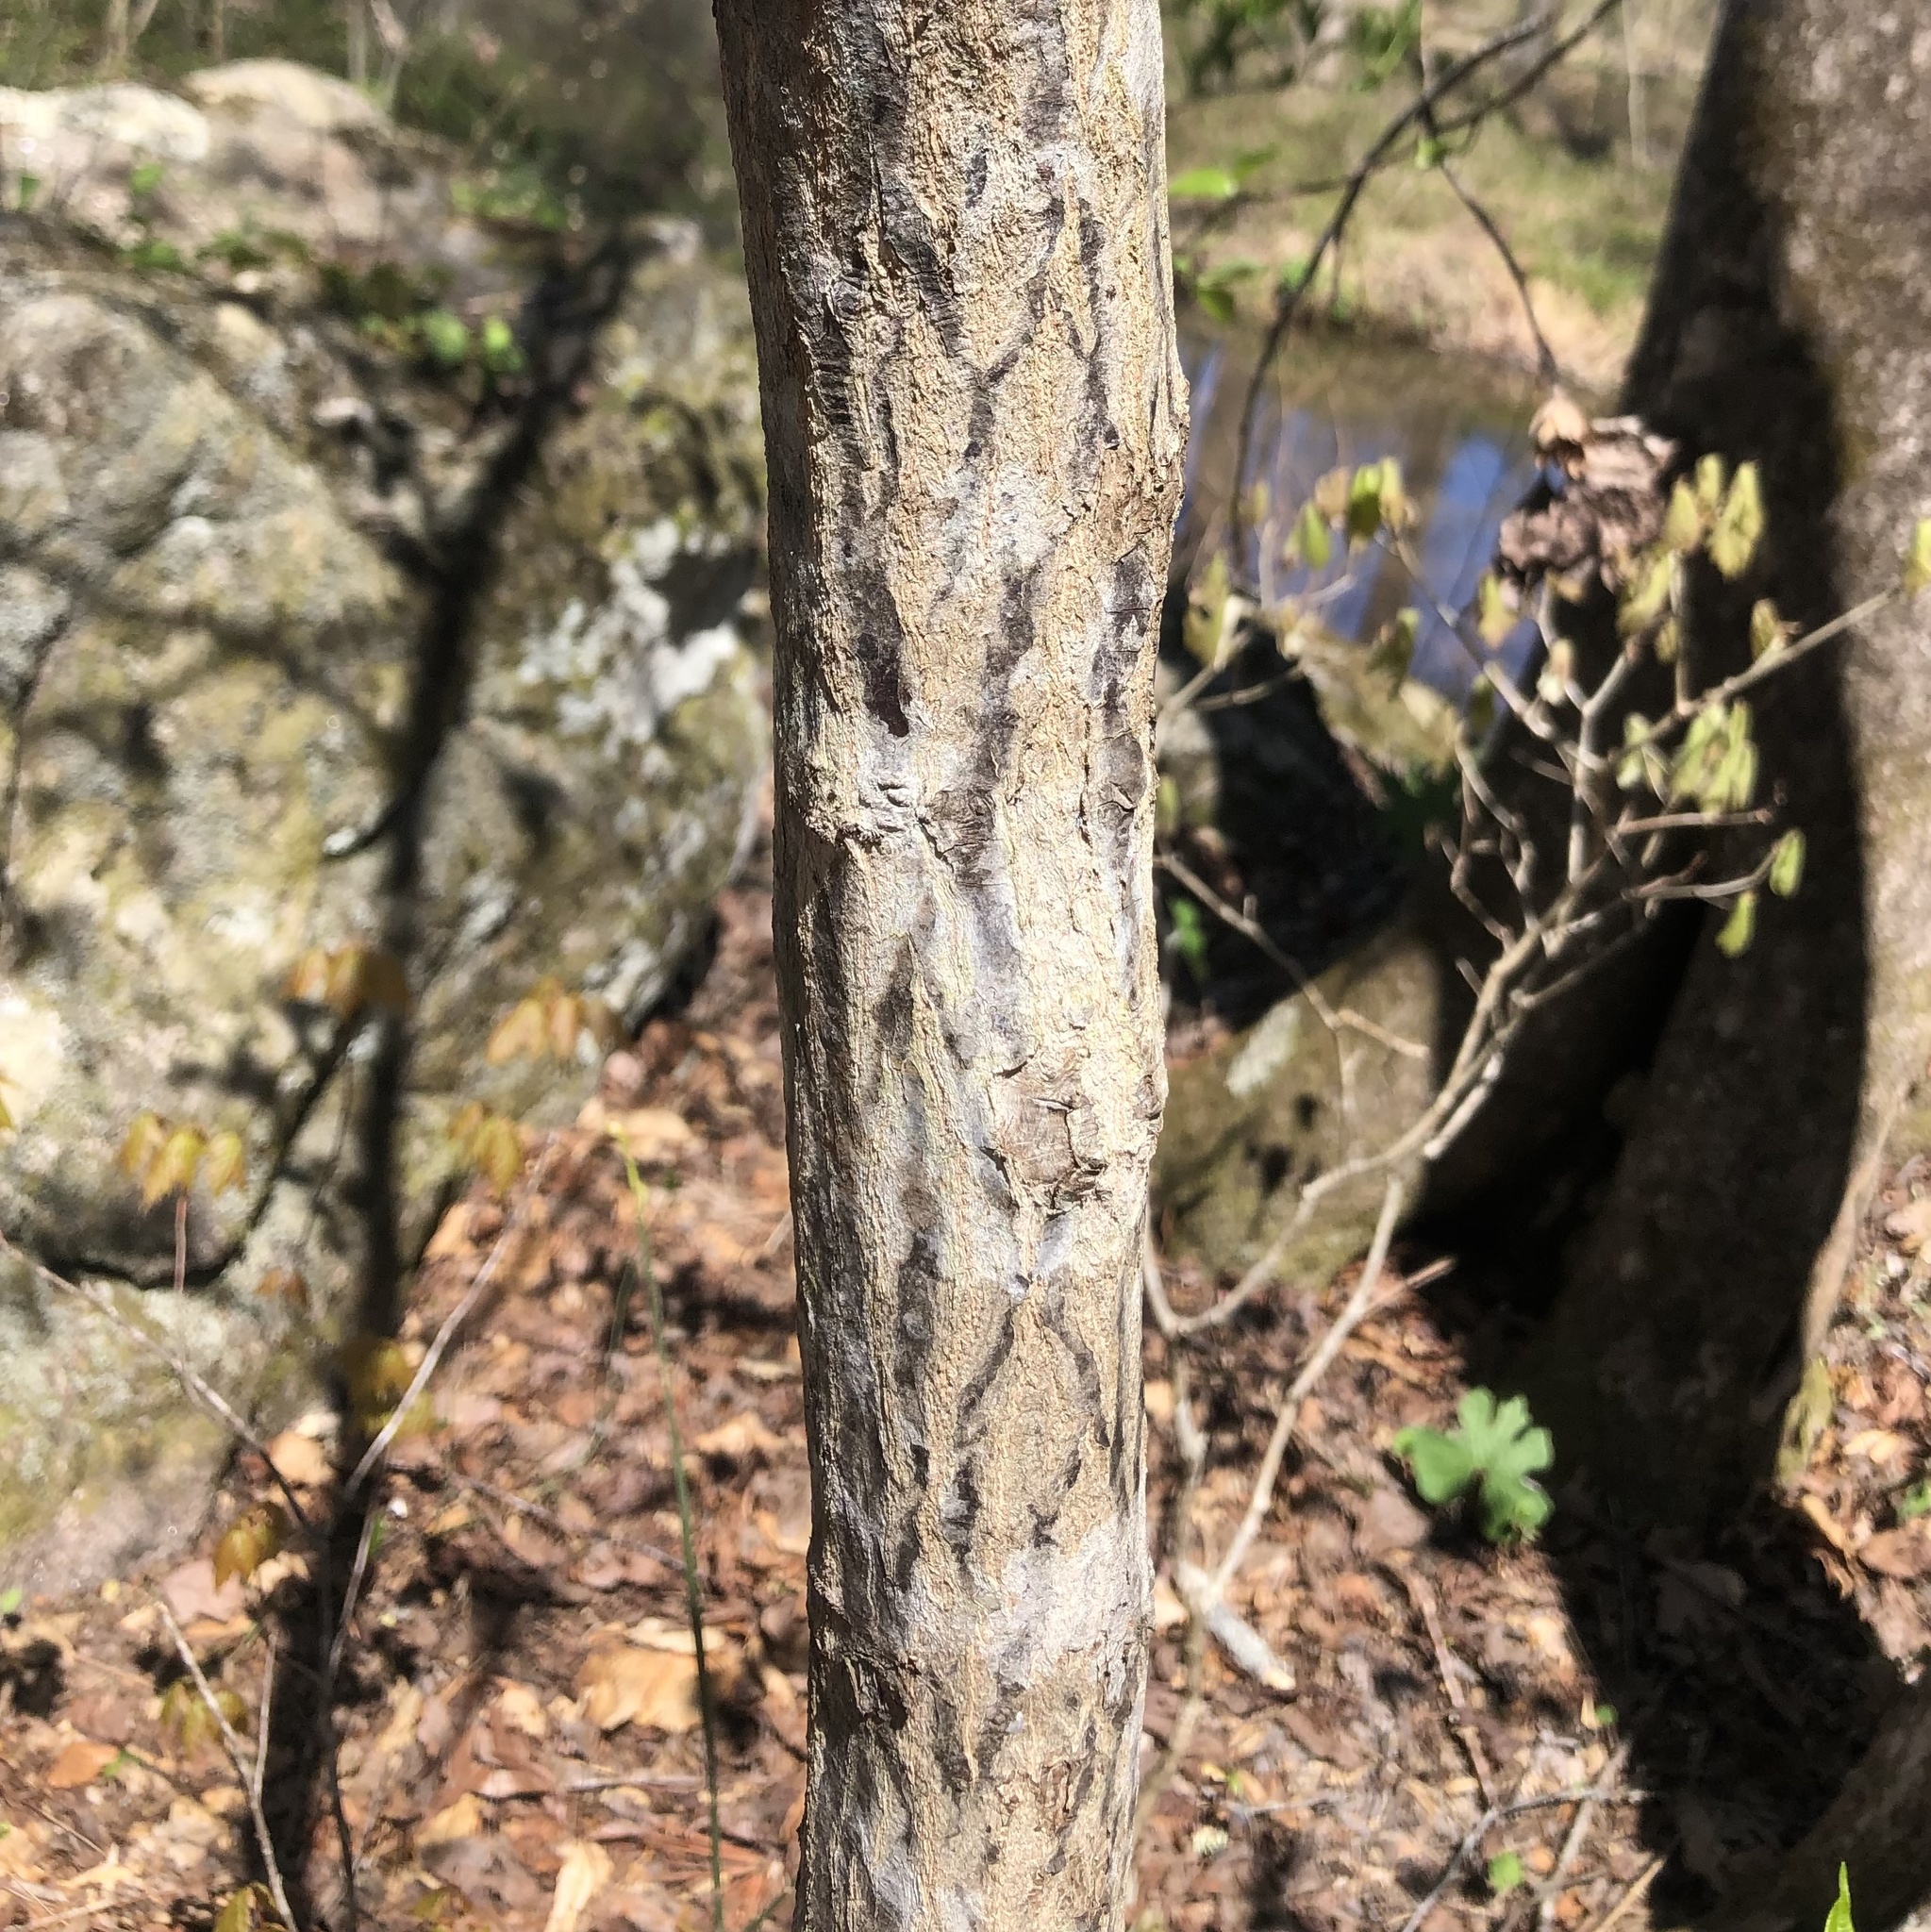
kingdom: Plantae
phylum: Tracheophyta
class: Magnoliopsida
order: Ericales
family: Styracaceae
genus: Halesia
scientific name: Halesia tetraptera
